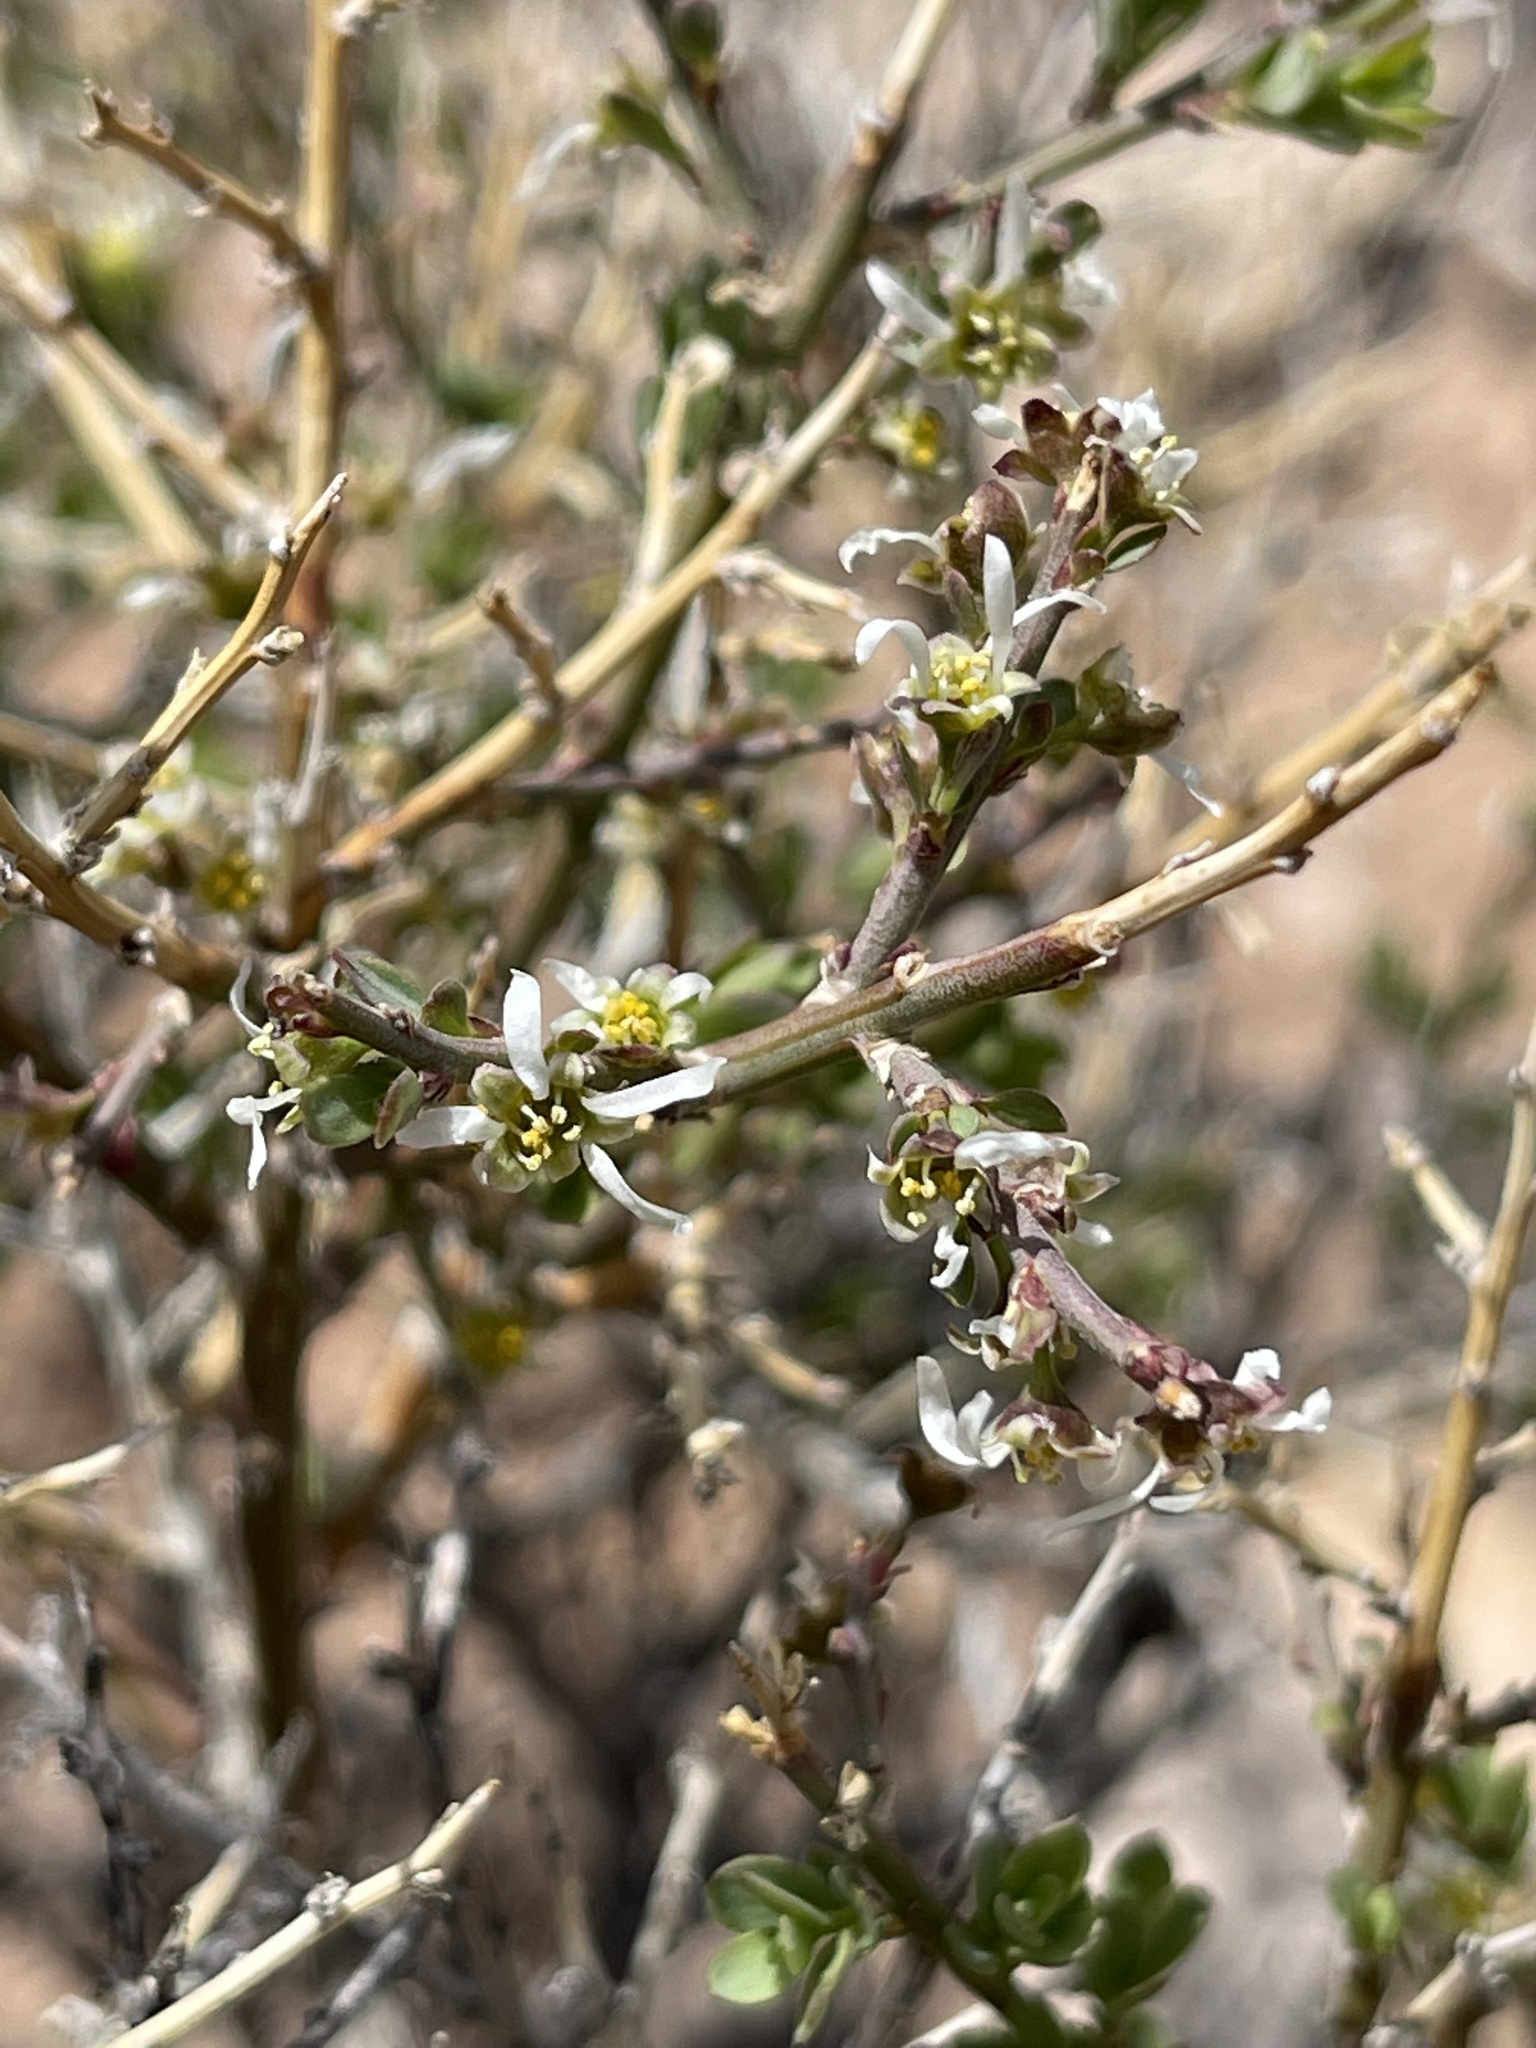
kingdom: Plantae
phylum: Tracheophyta
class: Magnoliopsida
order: Crossosomatales
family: Crossosomataceae
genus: Glossopetalon
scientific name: Glossopetalon spinescens
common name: Spring greasebush
